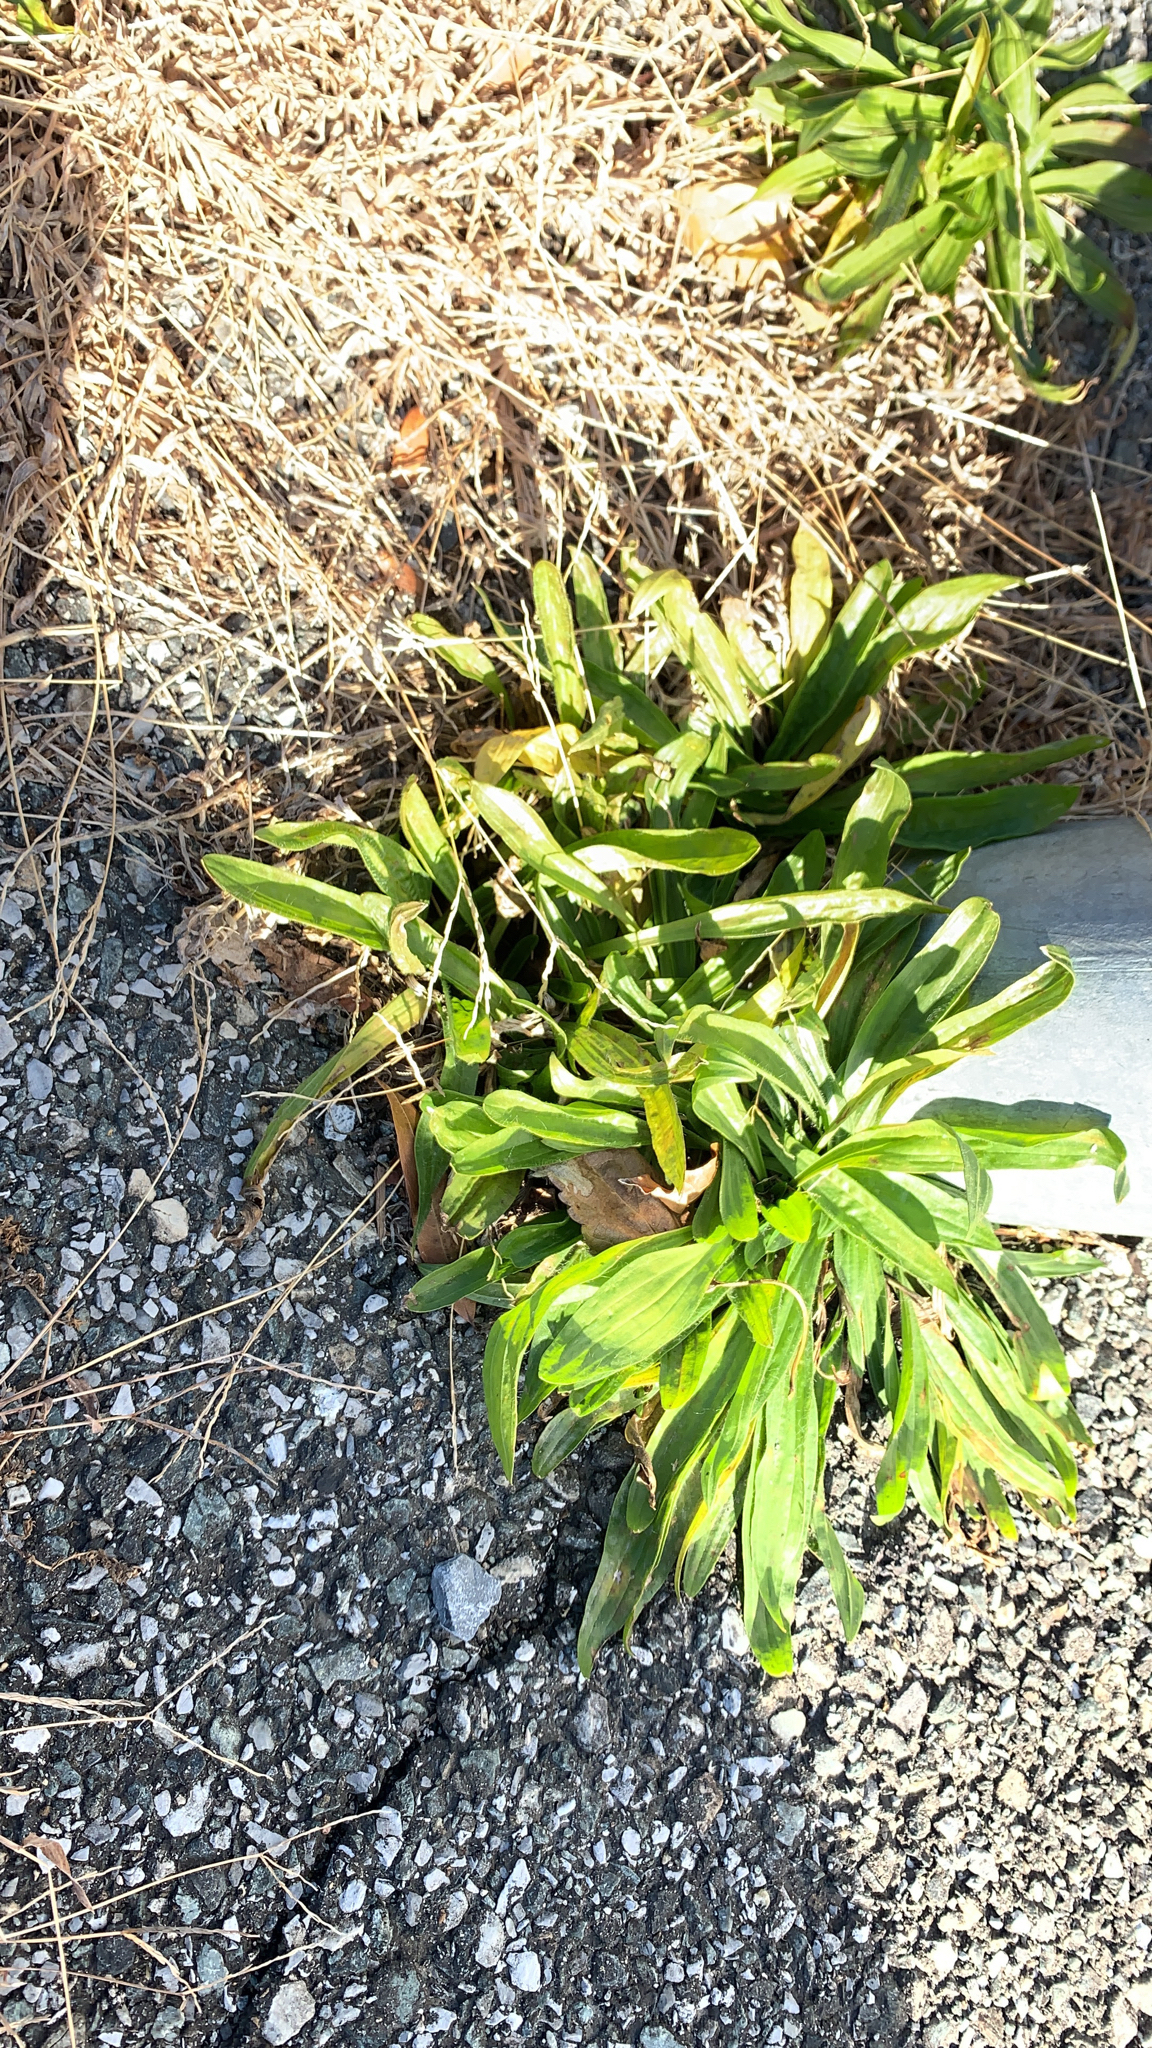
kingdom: Plantae
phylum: Tracheophyta
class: Magnoliopsida
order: Lamiales
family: Plantaginaceae
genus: Plantago
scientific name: Plantago lanceolata
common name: Ribwort plantain
